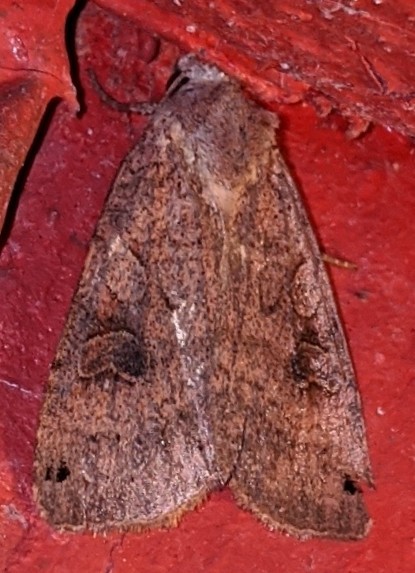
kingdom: Animalia
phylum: Arthropoda
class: Insecta
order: Lepidoptera
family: Noctuidae
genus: Xestia
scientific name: Xestia smithii
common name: Smith's dart
